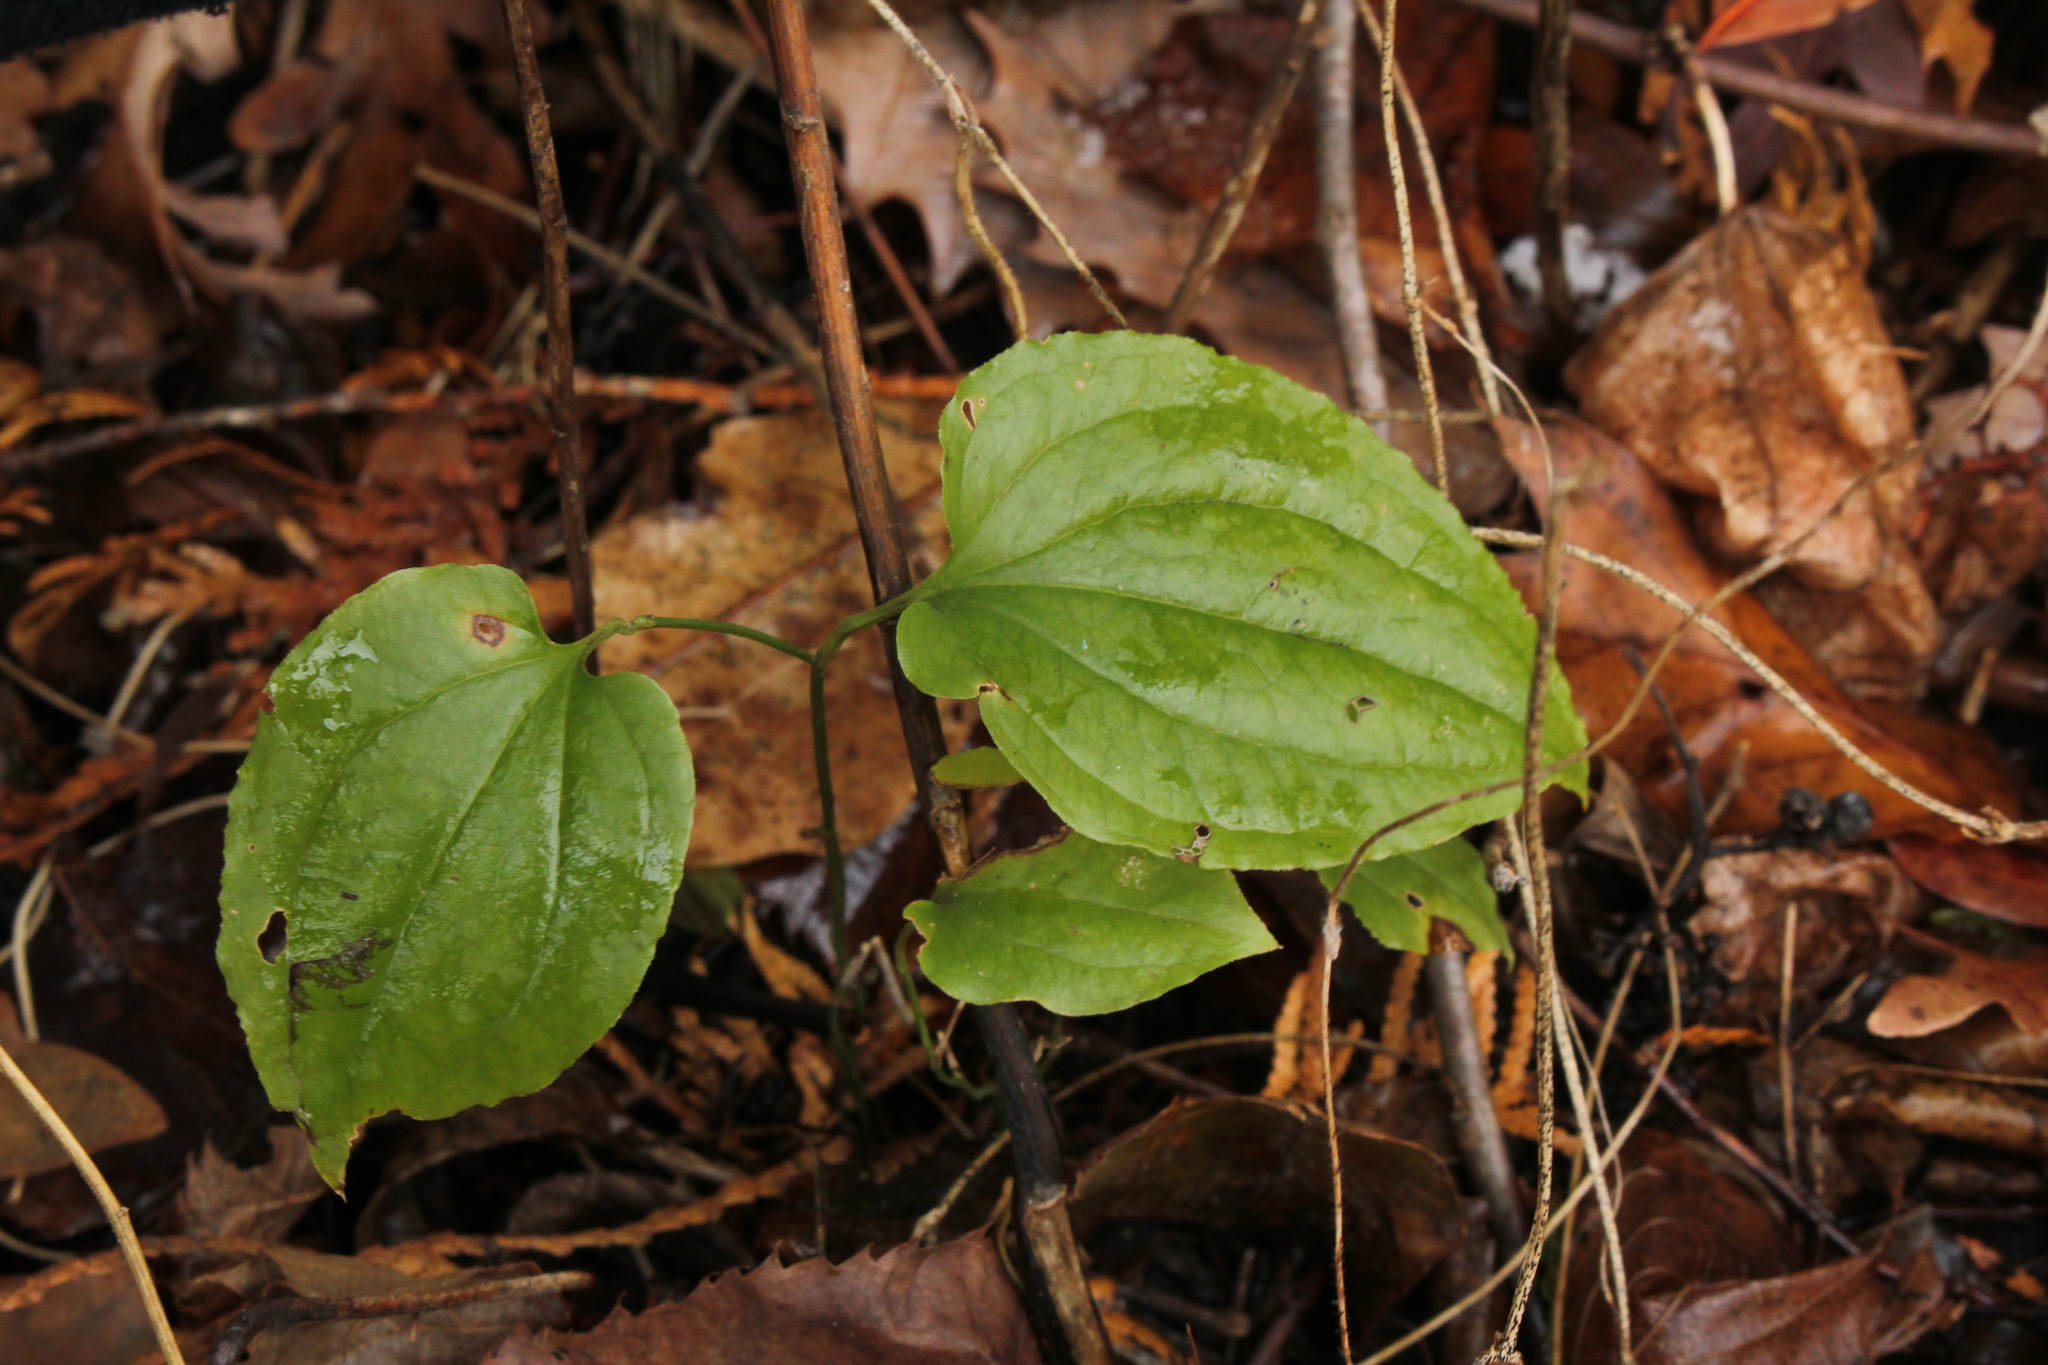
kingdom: Plantae
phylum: Tracheophyta
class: Liliopsida
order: Liliales
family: Smilacaceae
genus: Smilax
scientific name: Smilax tamnoides
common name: Hellfetter
